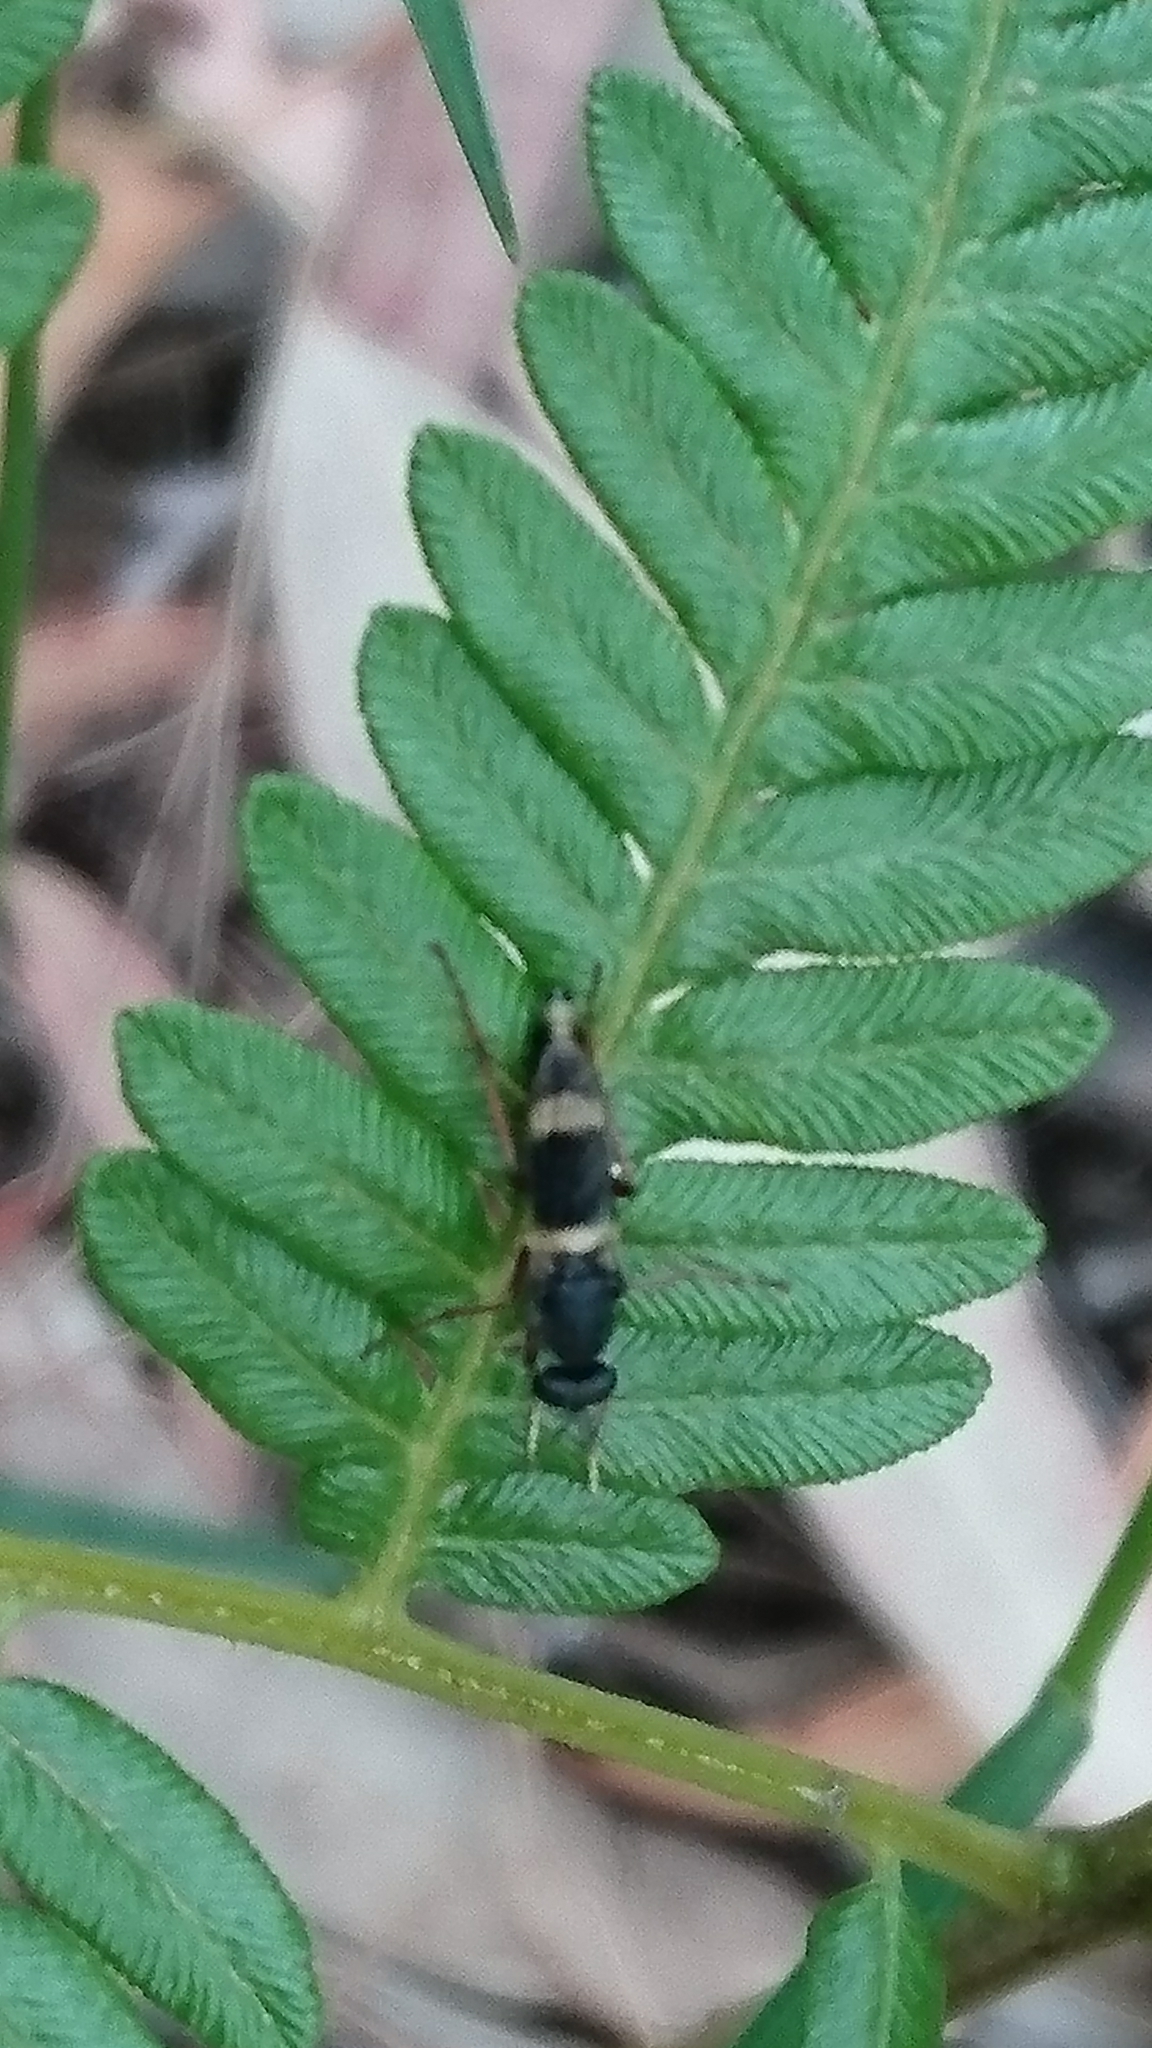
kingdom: Animalia
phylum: Arthropoda
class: Insecta
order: Diptera
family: Therevidae
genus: Pipinnipons
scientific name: Pipinnipons fascipennis
